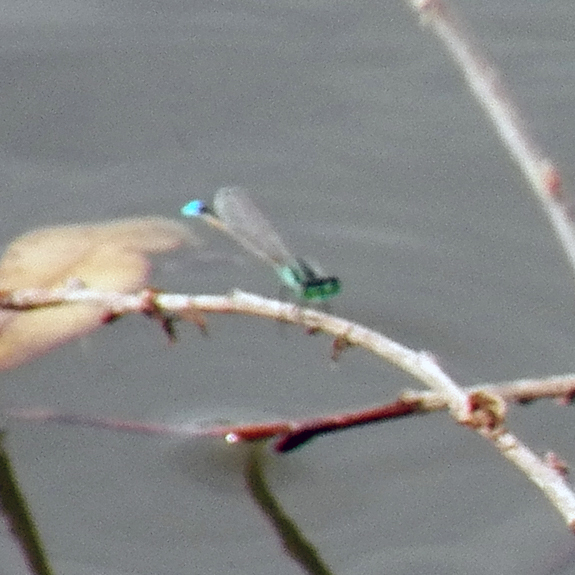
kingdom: Animalia
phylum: Arthropoda
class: Insecta
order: Odonata
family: Coenagrionidae
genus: Ischnura
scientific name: Ischnura ramburii
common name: Rambur's forktail
